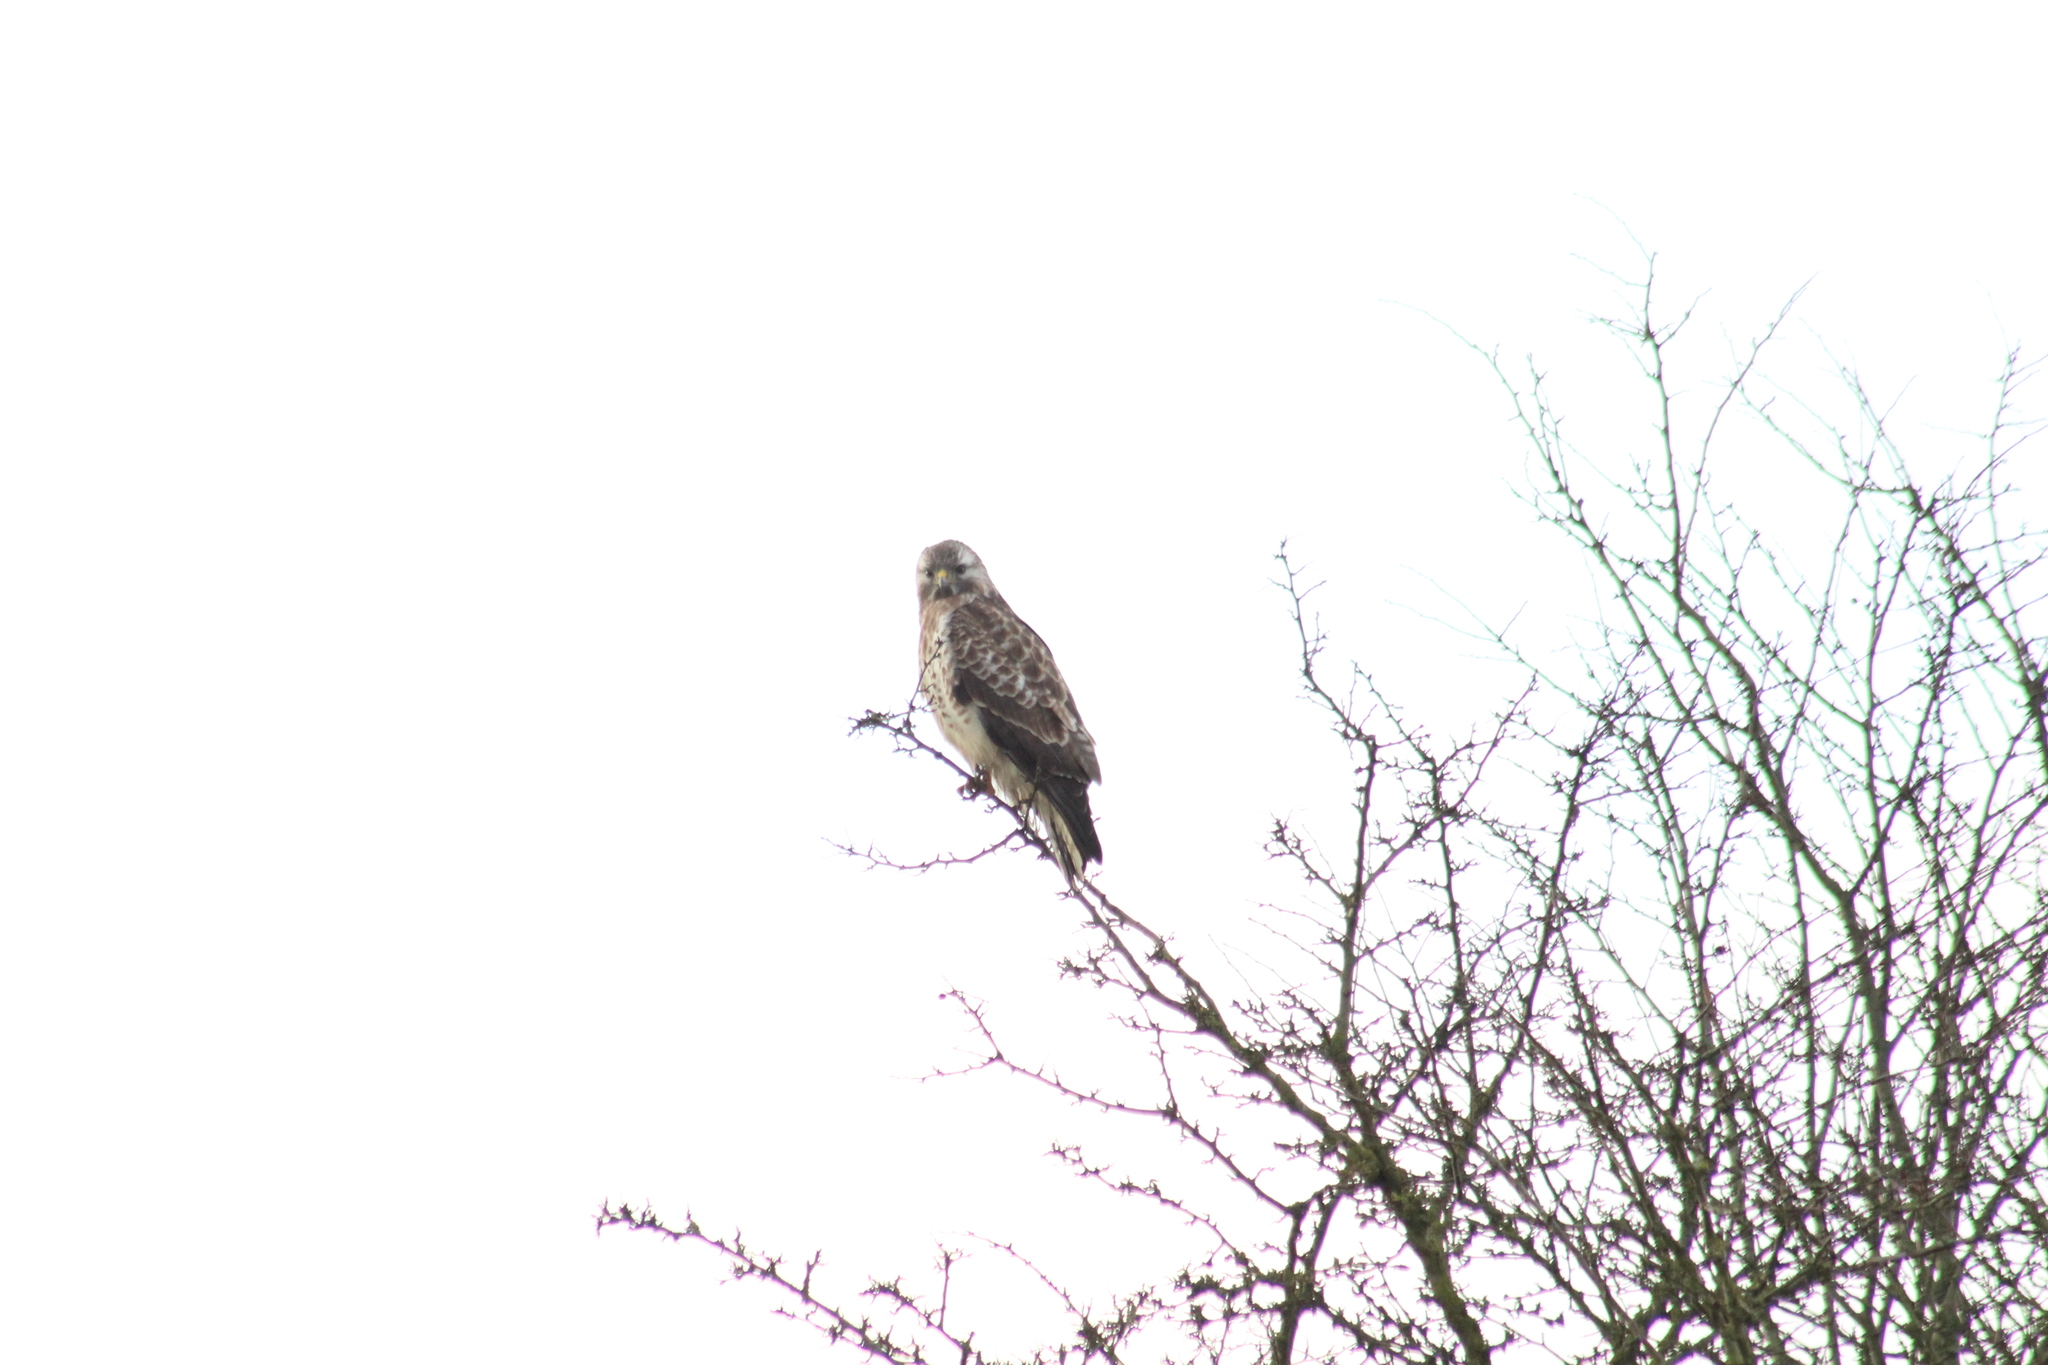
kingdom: Animalia
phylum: Chordata
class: Aves
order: Accipitriformes
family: Accipitridae
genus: Buteo
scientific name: Buteo buteo
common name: Common buzzard
